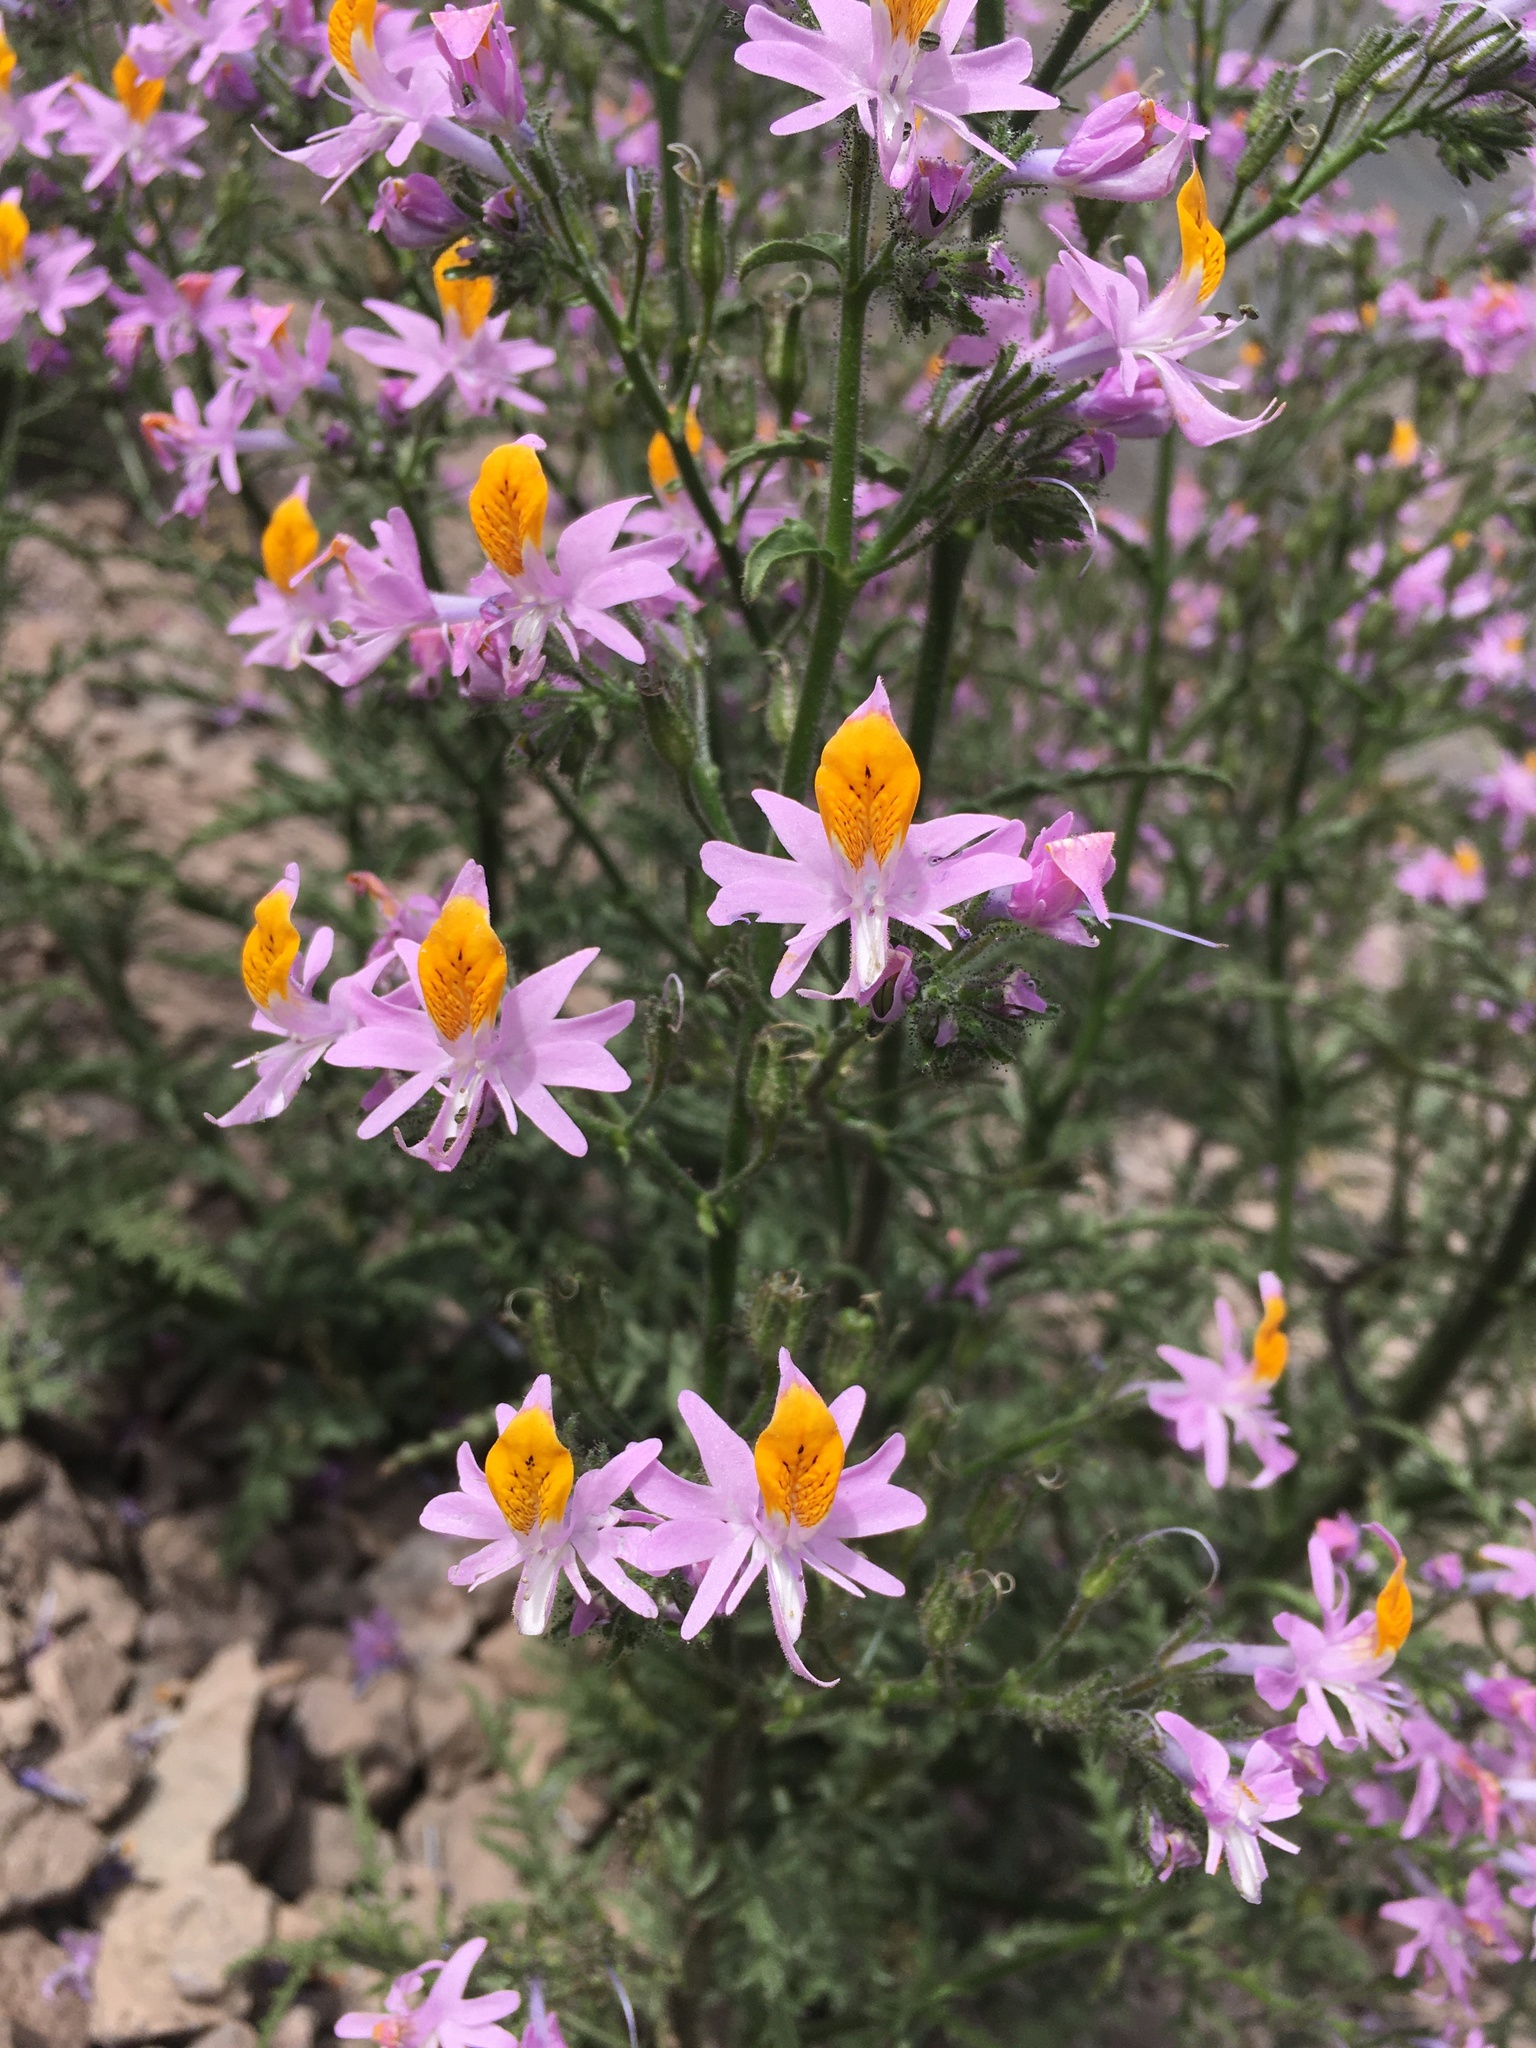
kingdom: Plantae
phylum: Tracheophyta
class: Magnoliopsida
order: Solanales
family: Solanaceae
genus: Schizanthus
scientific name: Schizanthus hookeri
